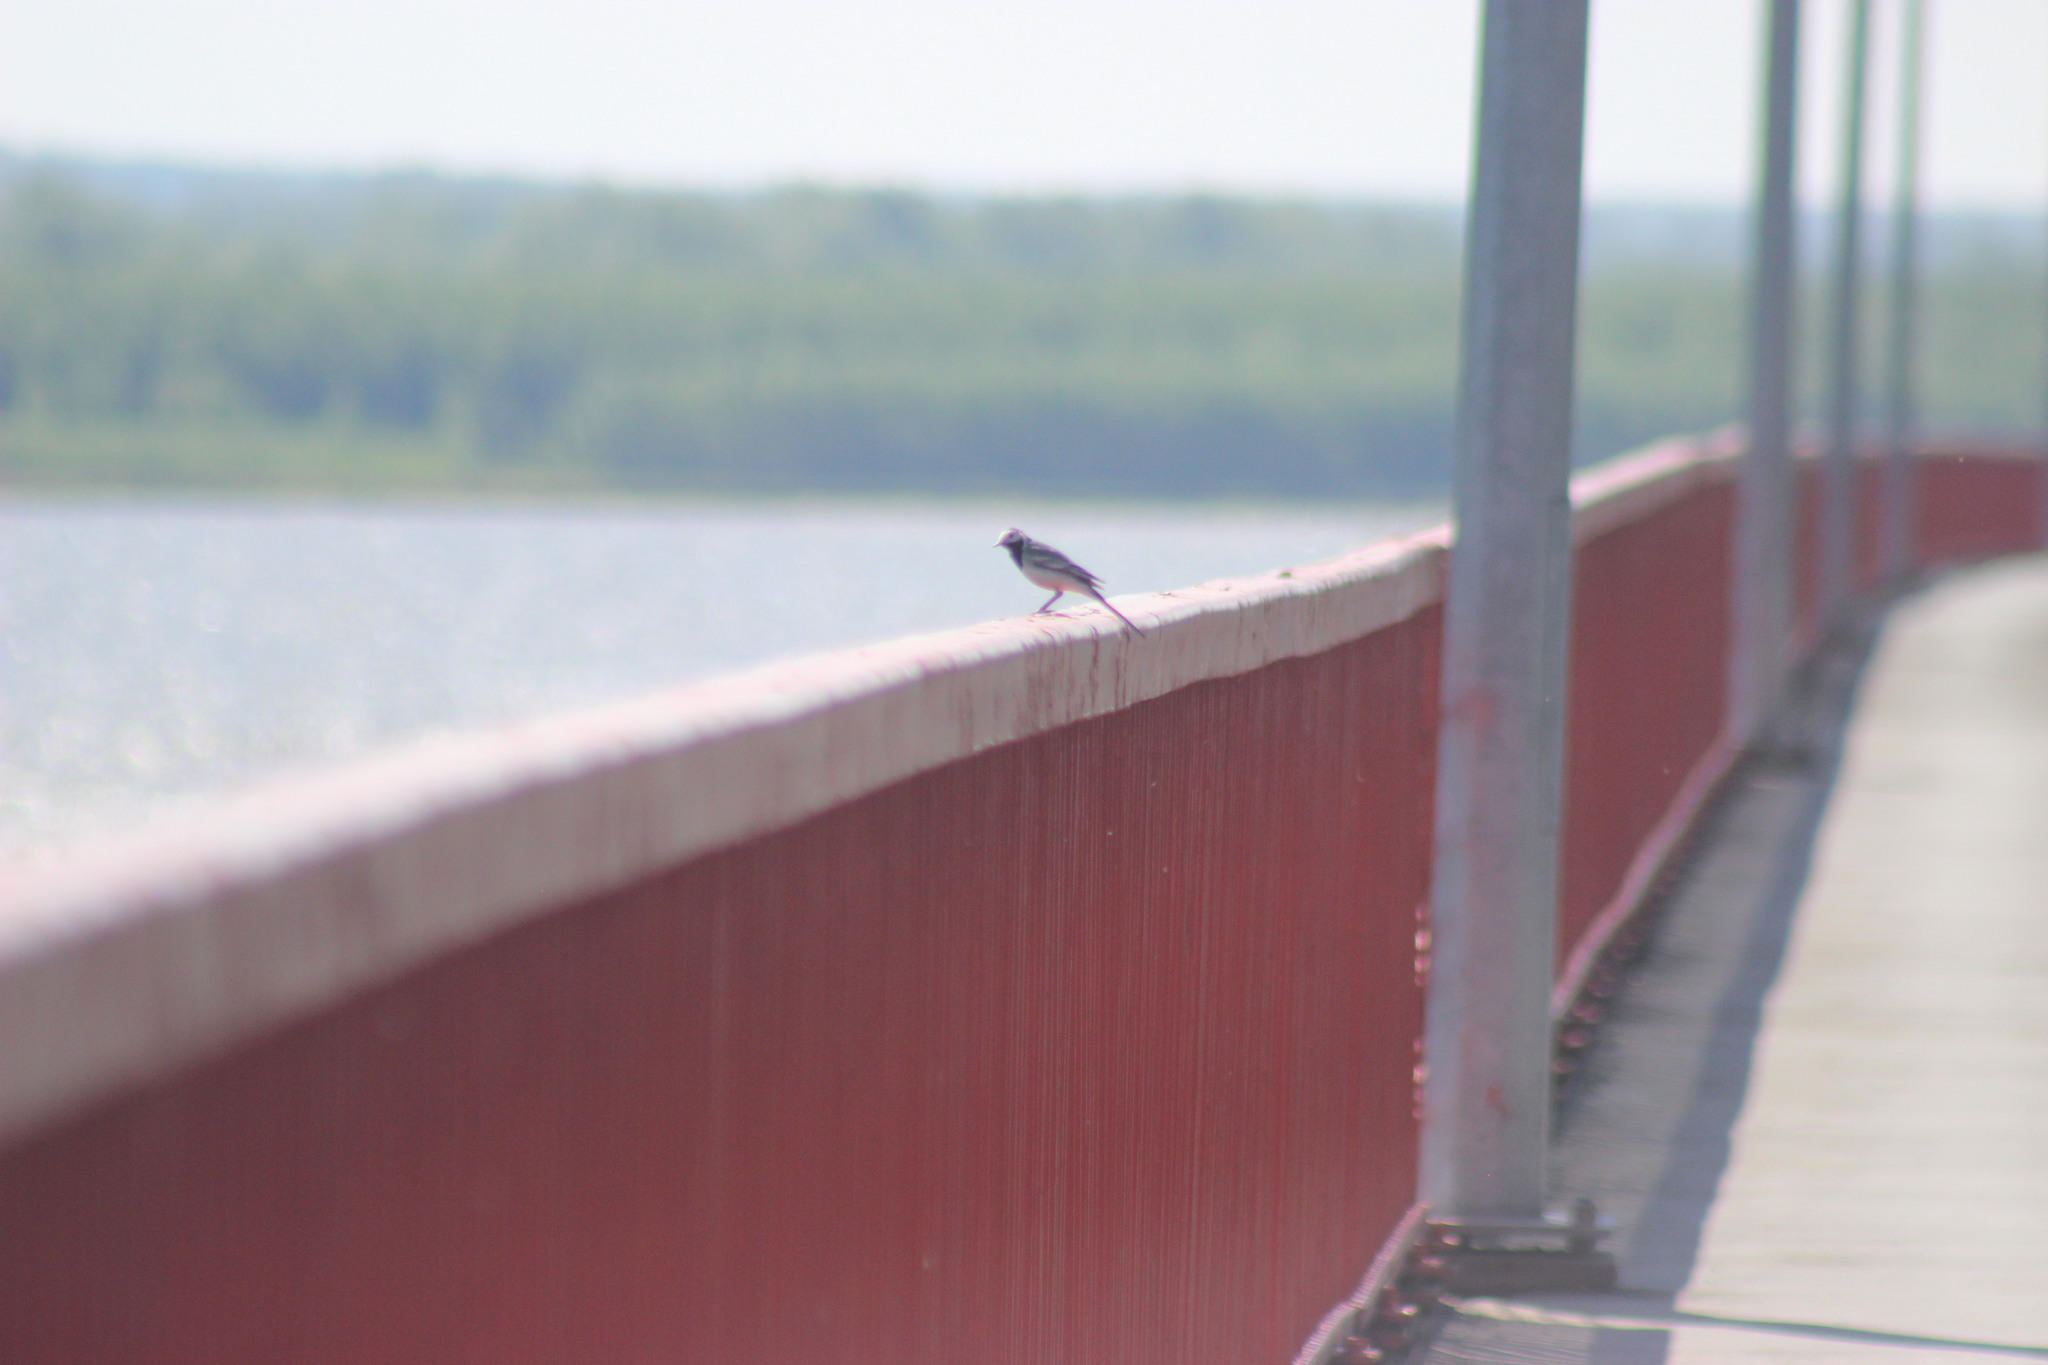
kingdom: Animalia
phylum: Chordata
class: Aves
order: Passeriformes
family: Motacillidae
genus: Motacilla
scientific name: Motacilla alba
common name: White wagtail
